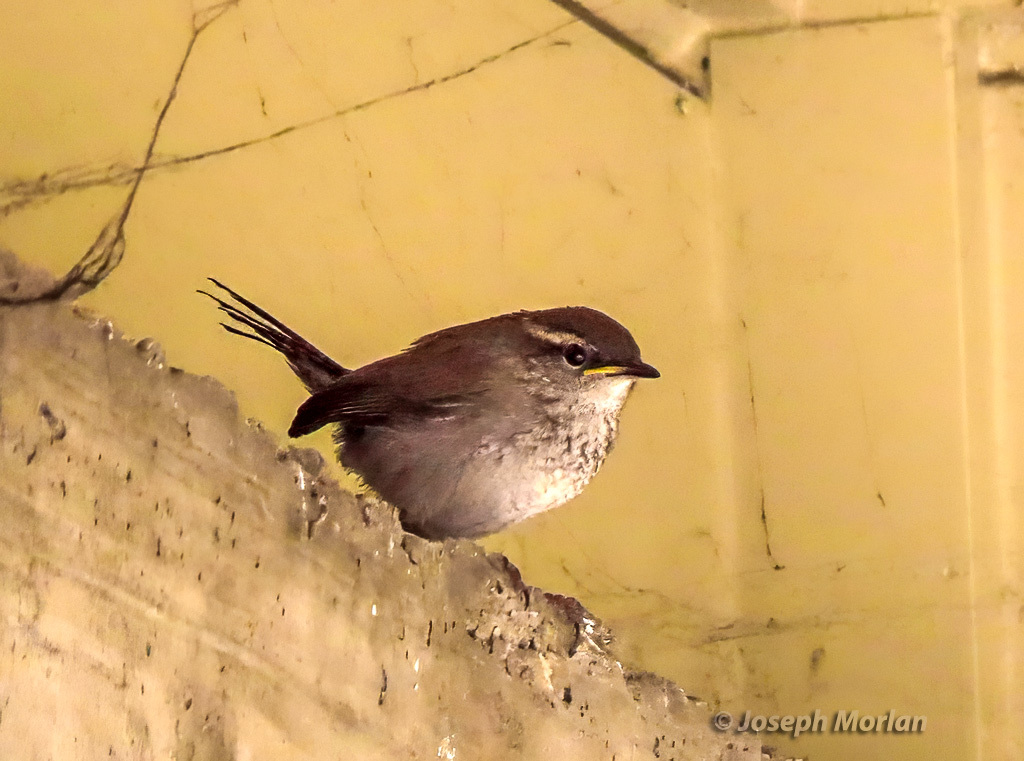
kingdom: Animalia
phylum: Chordata
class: Aves
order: Passeriformes
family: Troglodytidae
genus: Thryomanes
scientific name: Thryomanes bewickii
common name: Bewick's wren
